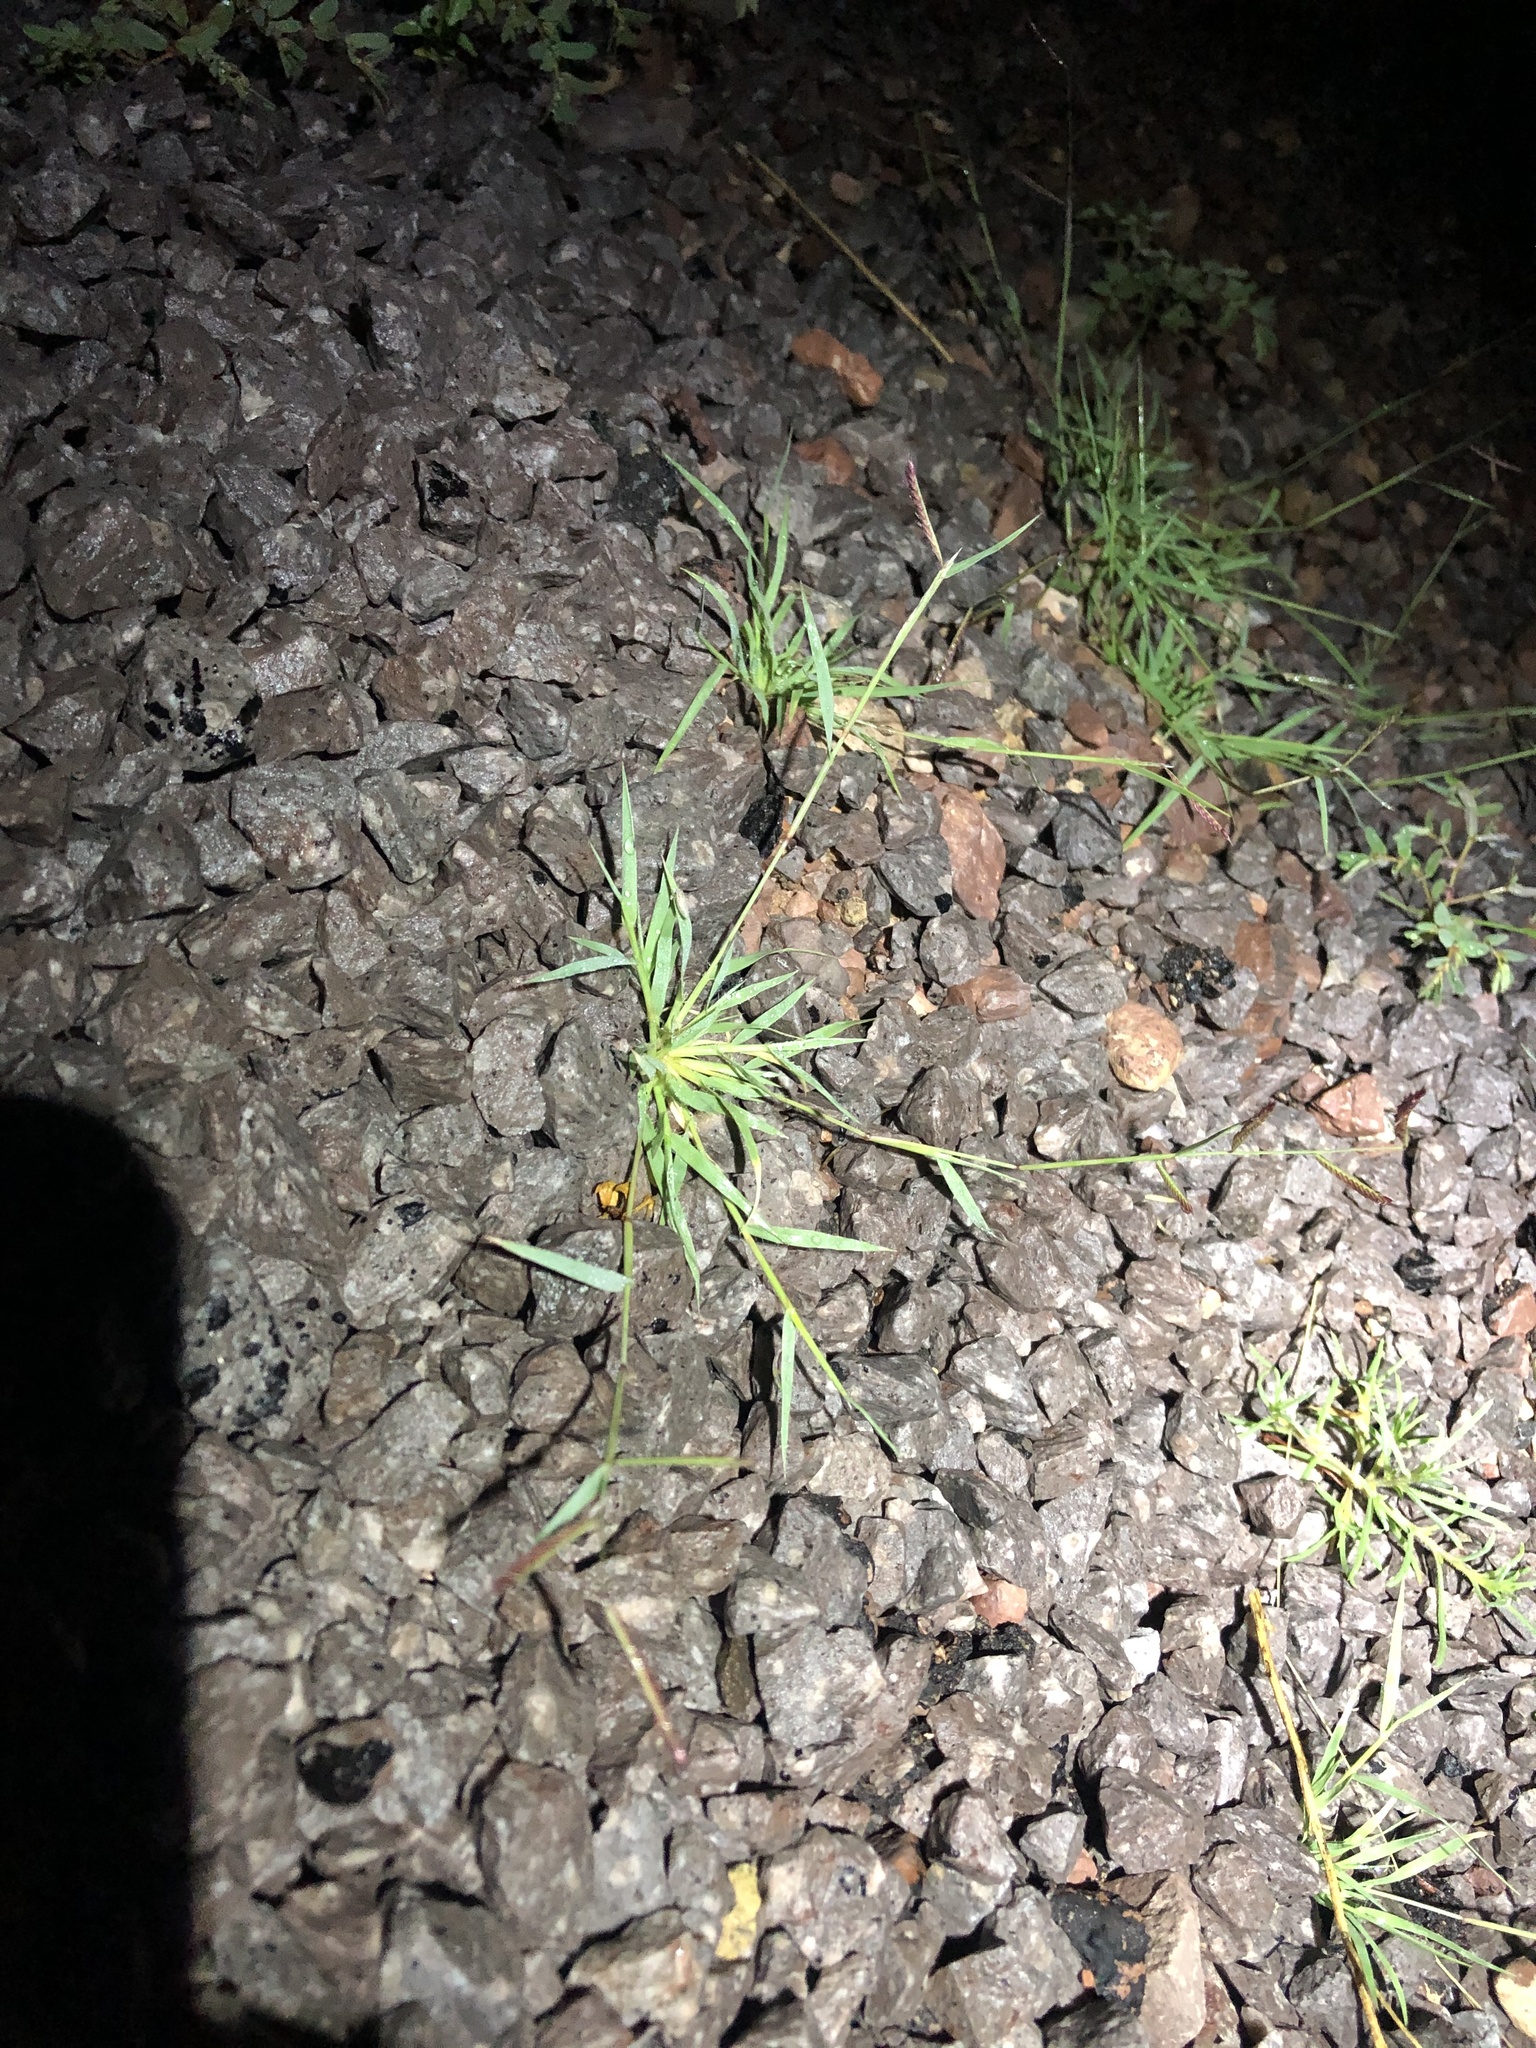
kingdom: Plantae
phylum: Tracheophyta
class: Liliopsida
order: Poales
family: Poaceae
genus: Bouteloua
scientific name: Bouteloua barbata
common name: Six-weeks grama
